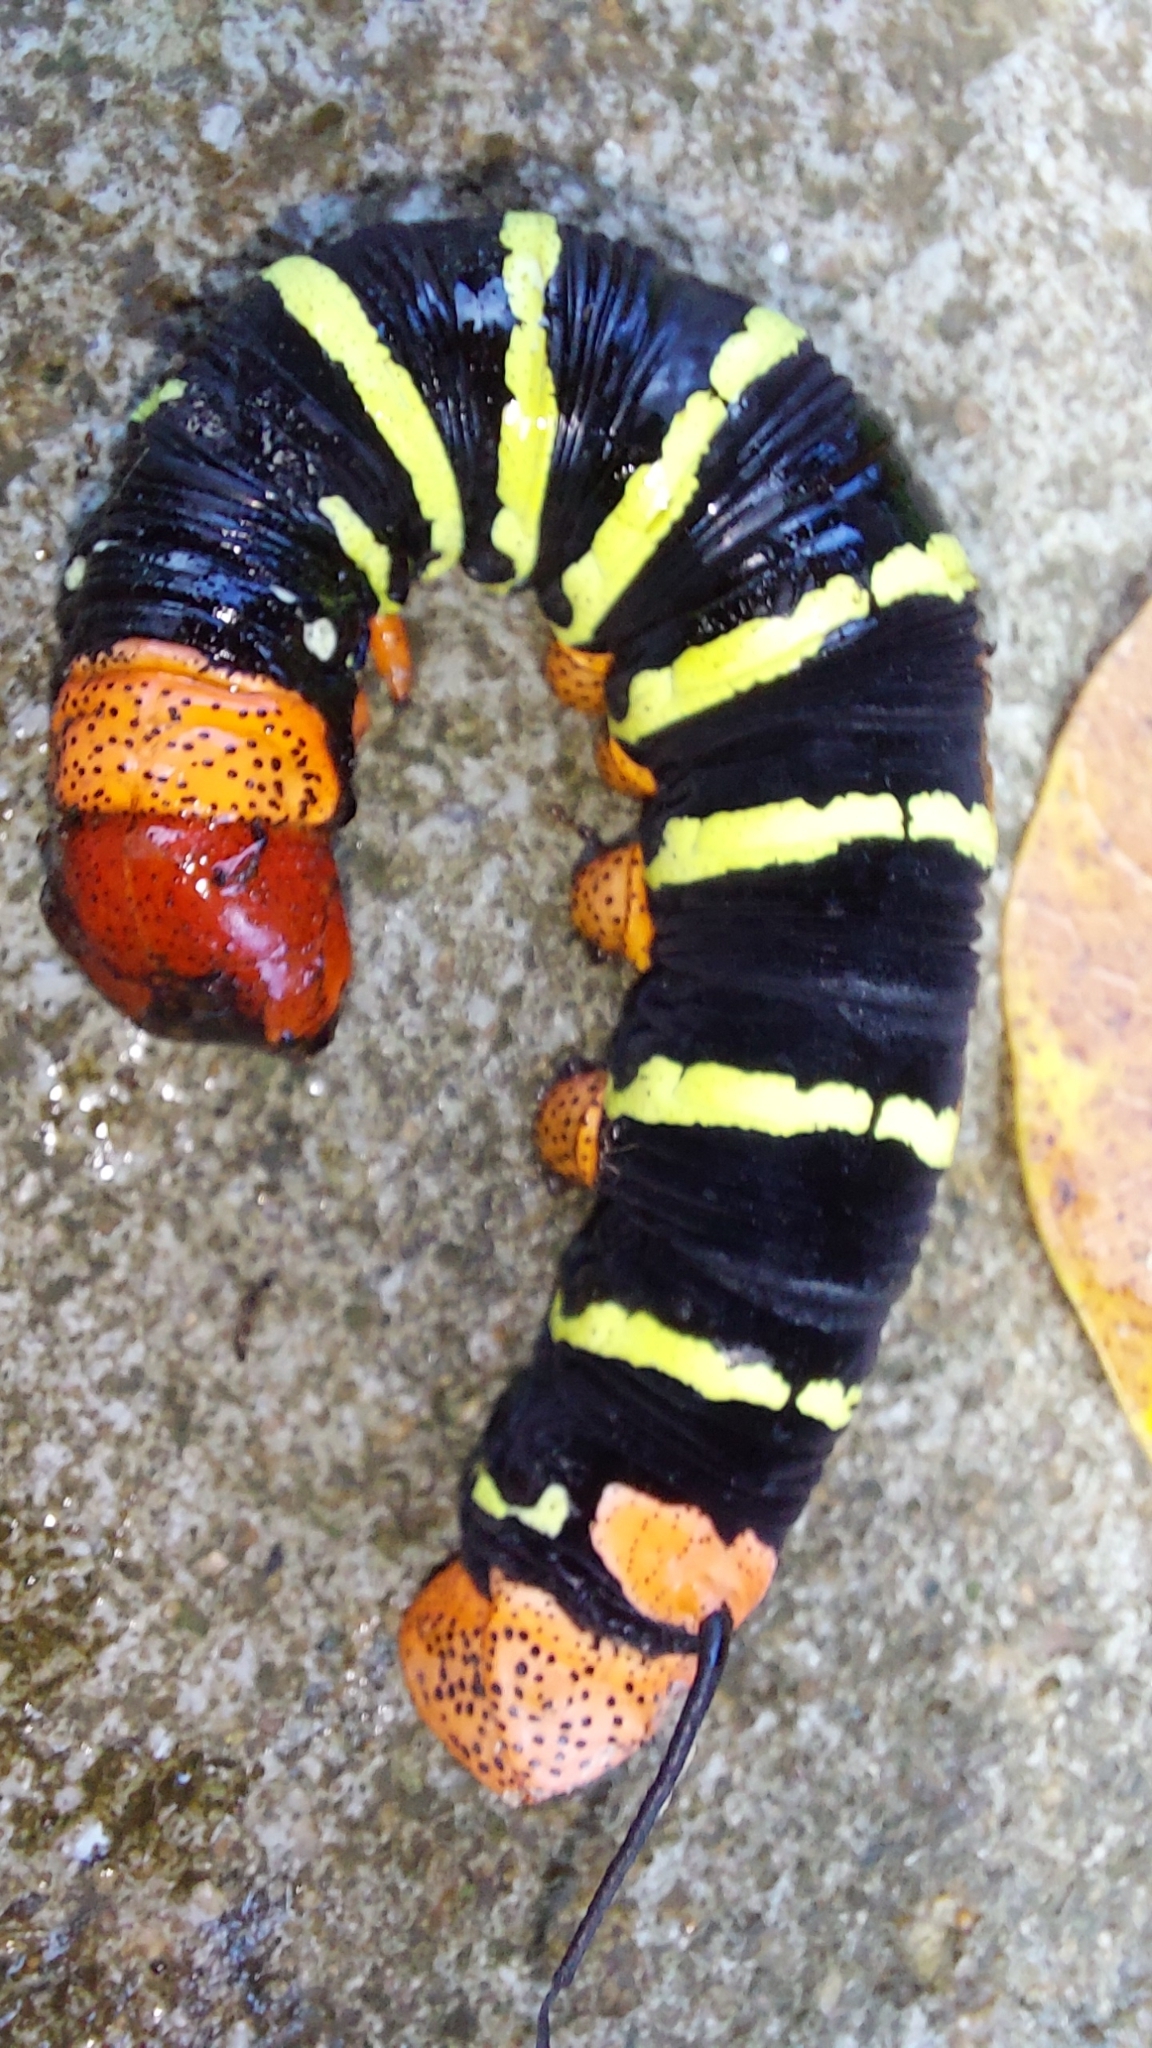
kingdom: Animalia
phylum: Arthropoda
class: Insecta
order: Lepidoptera
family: Sphingidae
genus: Pseudosphinx
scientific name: Pseudosphinx tetrio
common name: Tetrio sphinx
